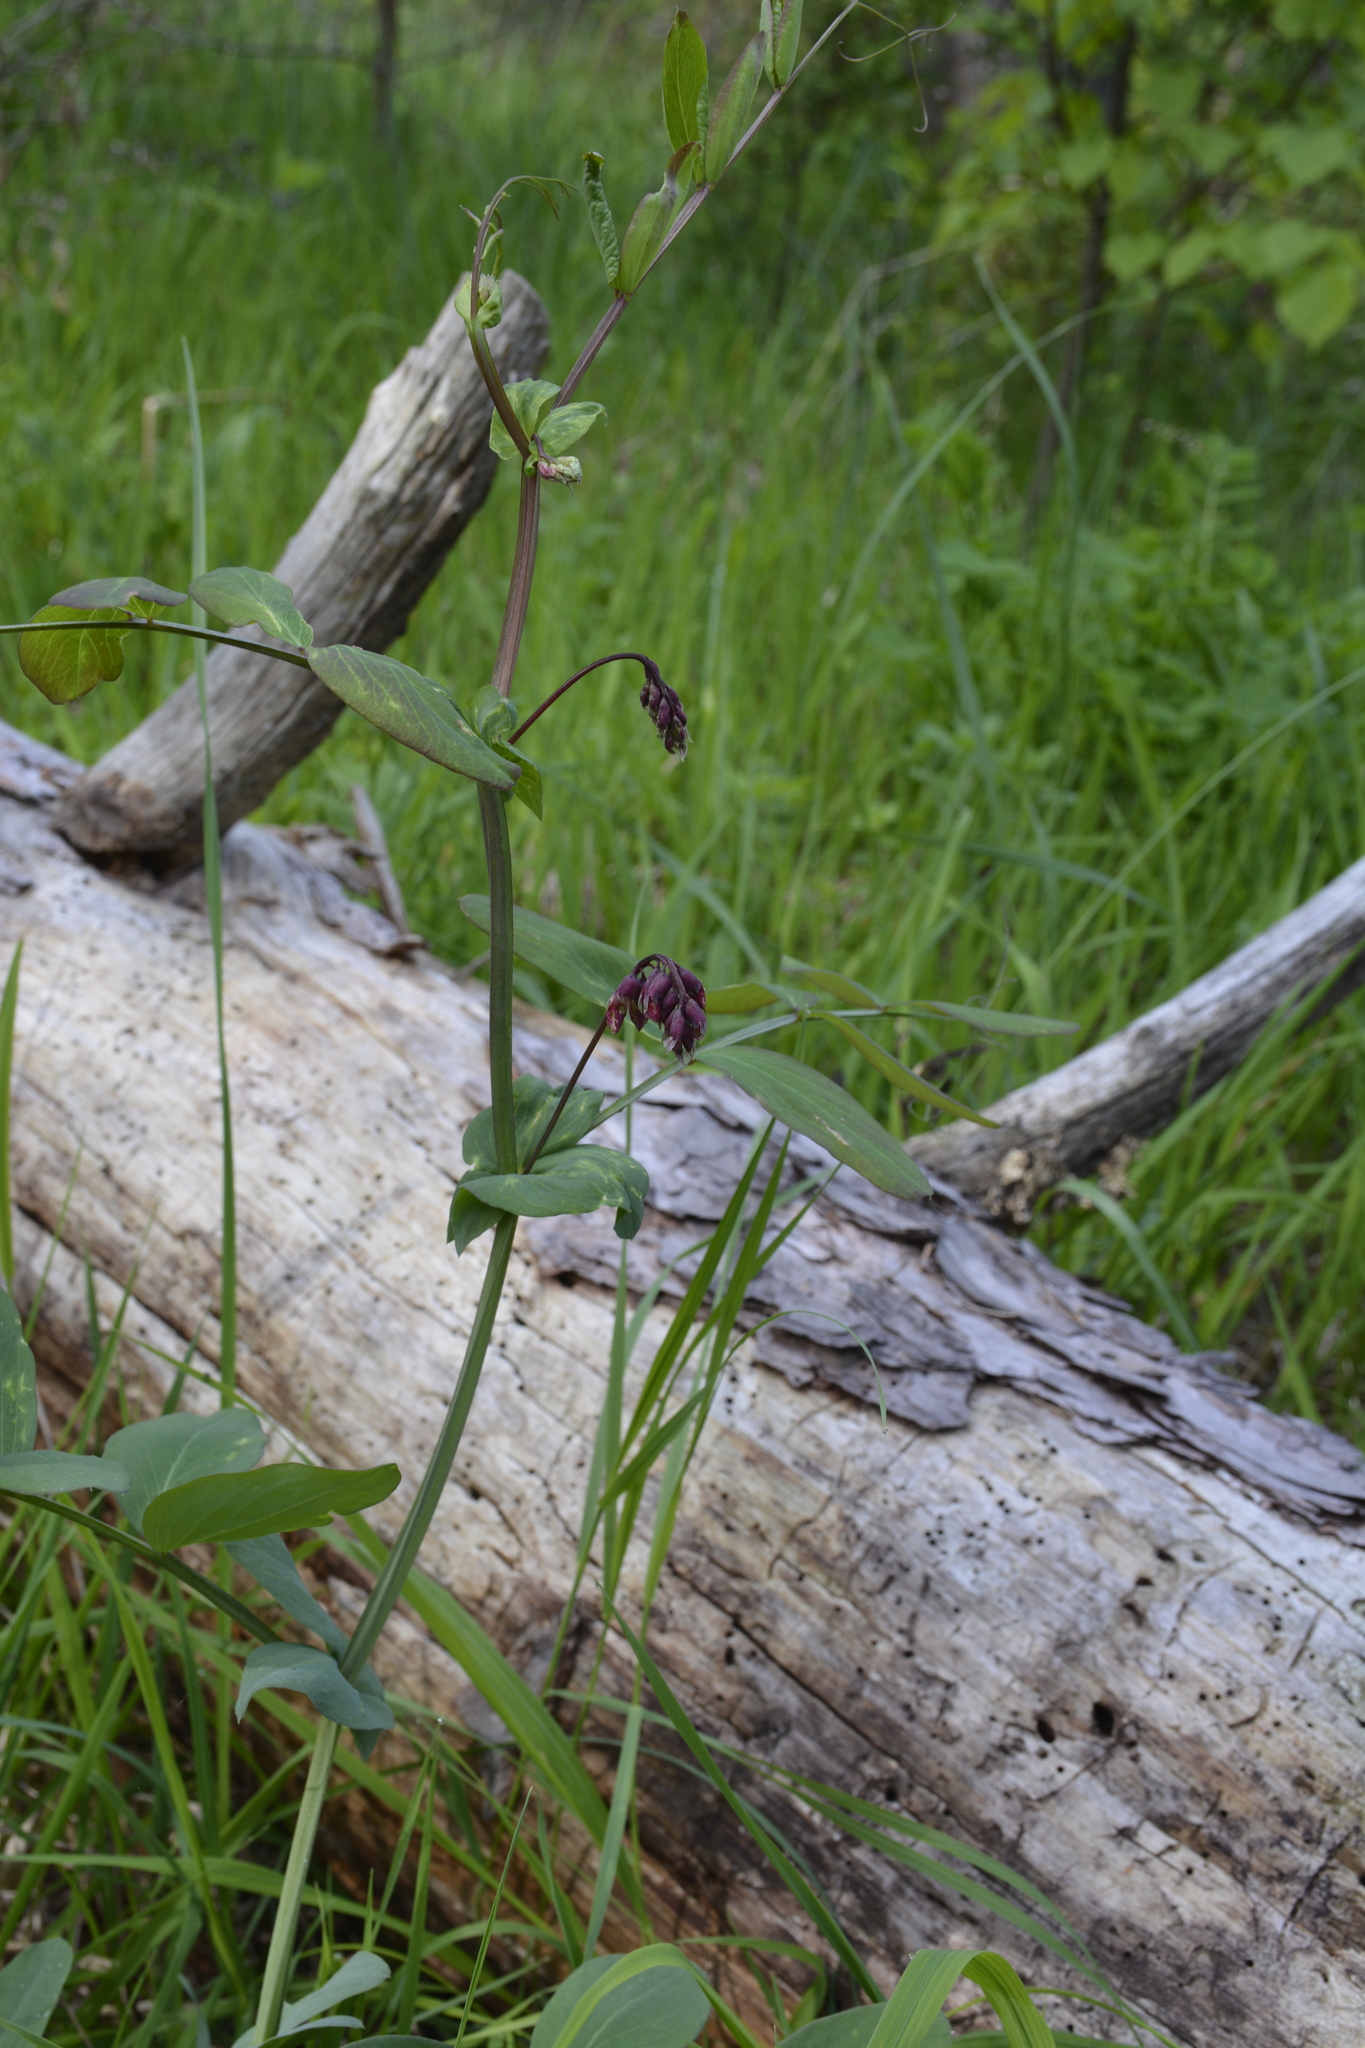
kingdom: Plantae
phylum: Tracheophyta
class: Magnoliopsida
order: Fabales
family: Fabaceae
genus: Lathyrus
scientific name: Lathyrus pisiformis
